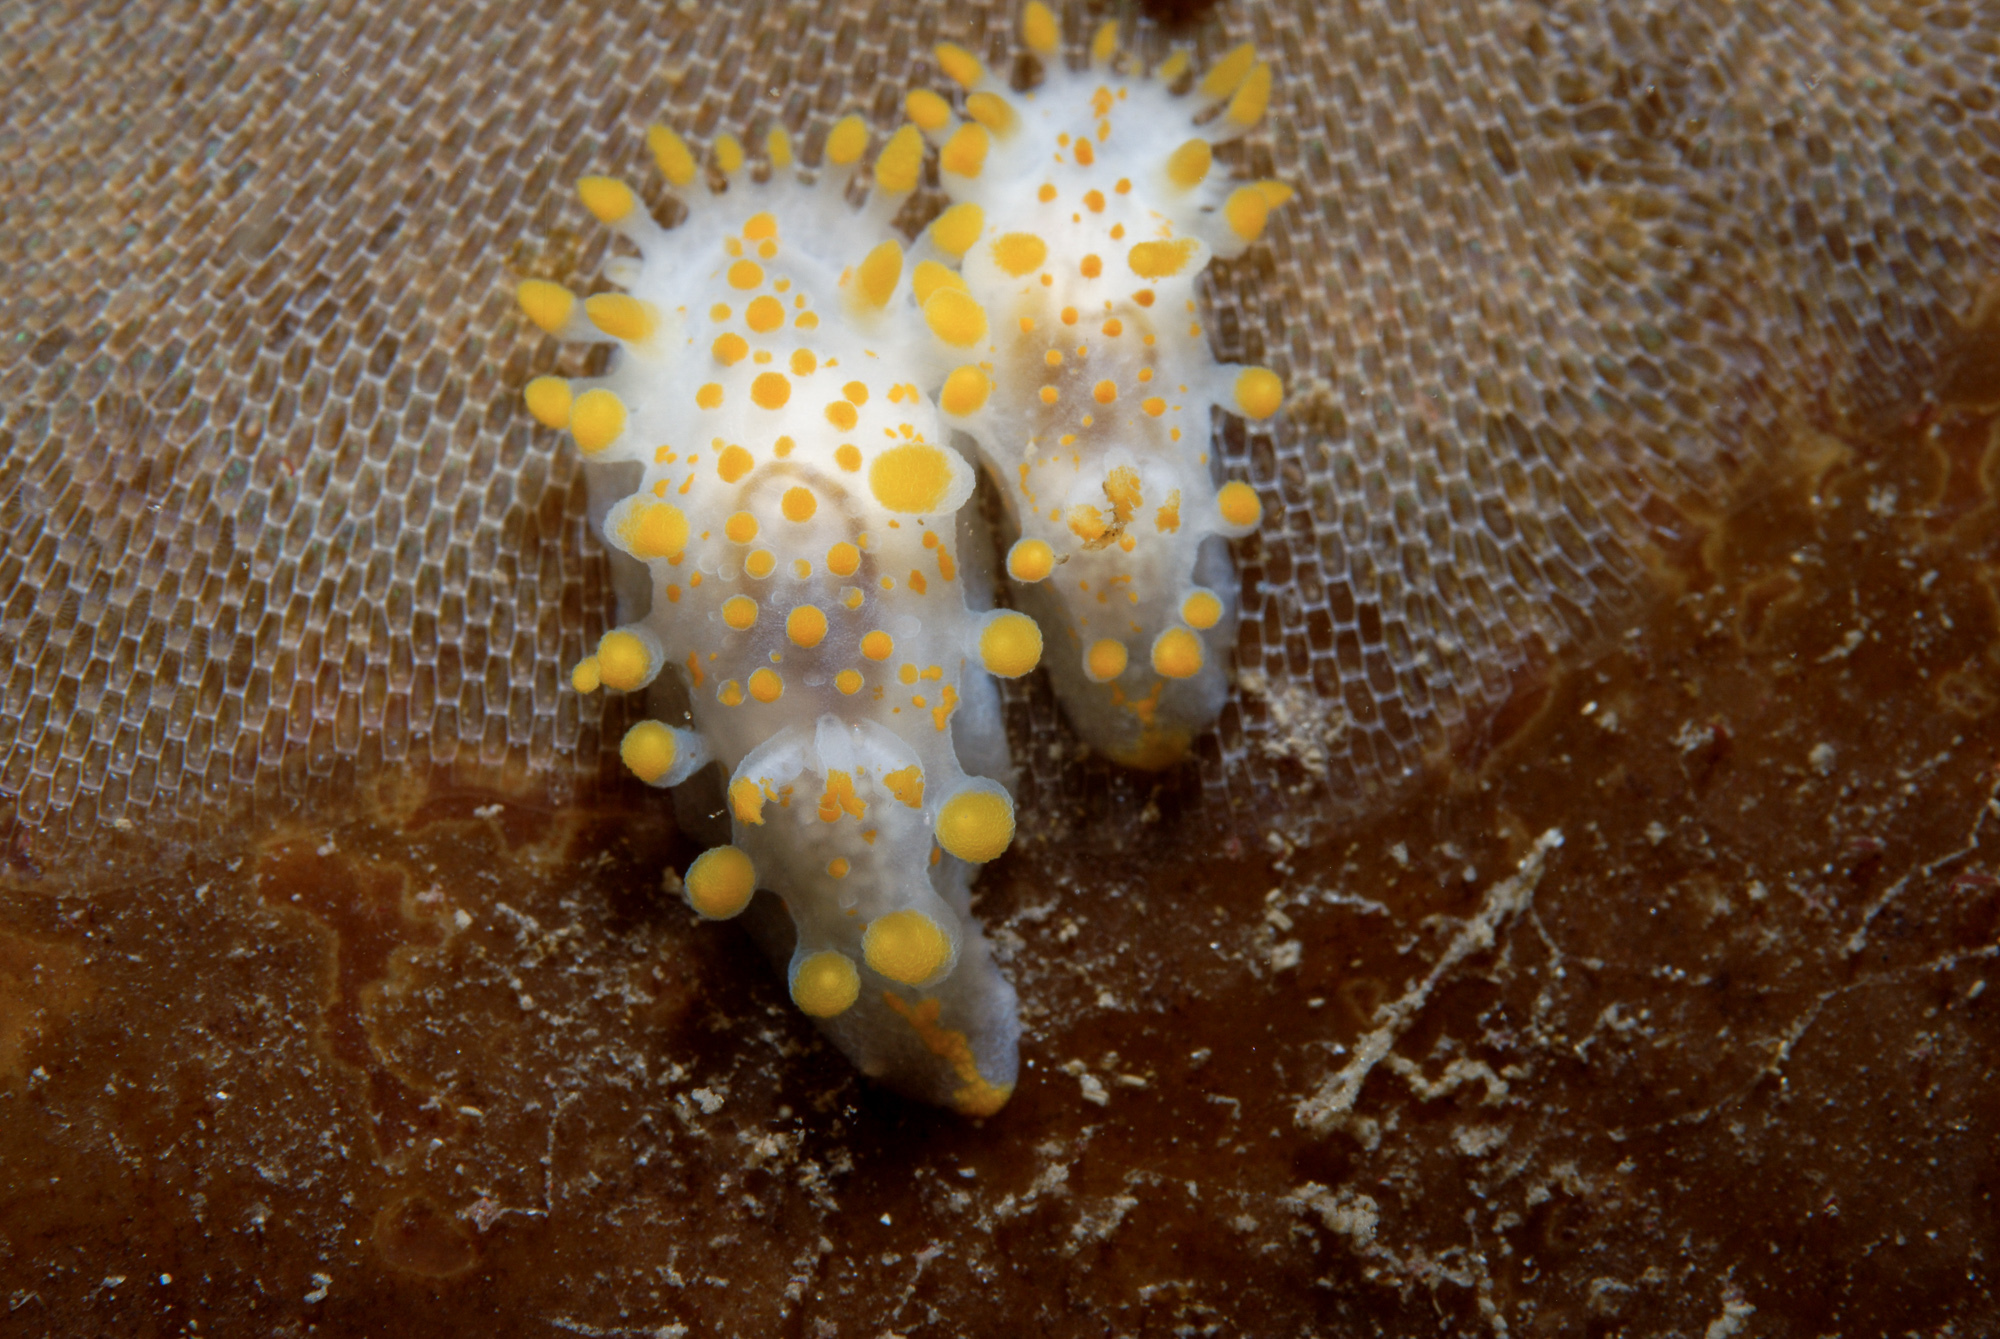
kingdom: Animalia
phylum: Mollusca
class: Gastropoda
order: Nudibranchia
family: Polyceridae
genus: Limacia
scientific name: Limacia clavigera
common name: Orange-clubbed sea slug
